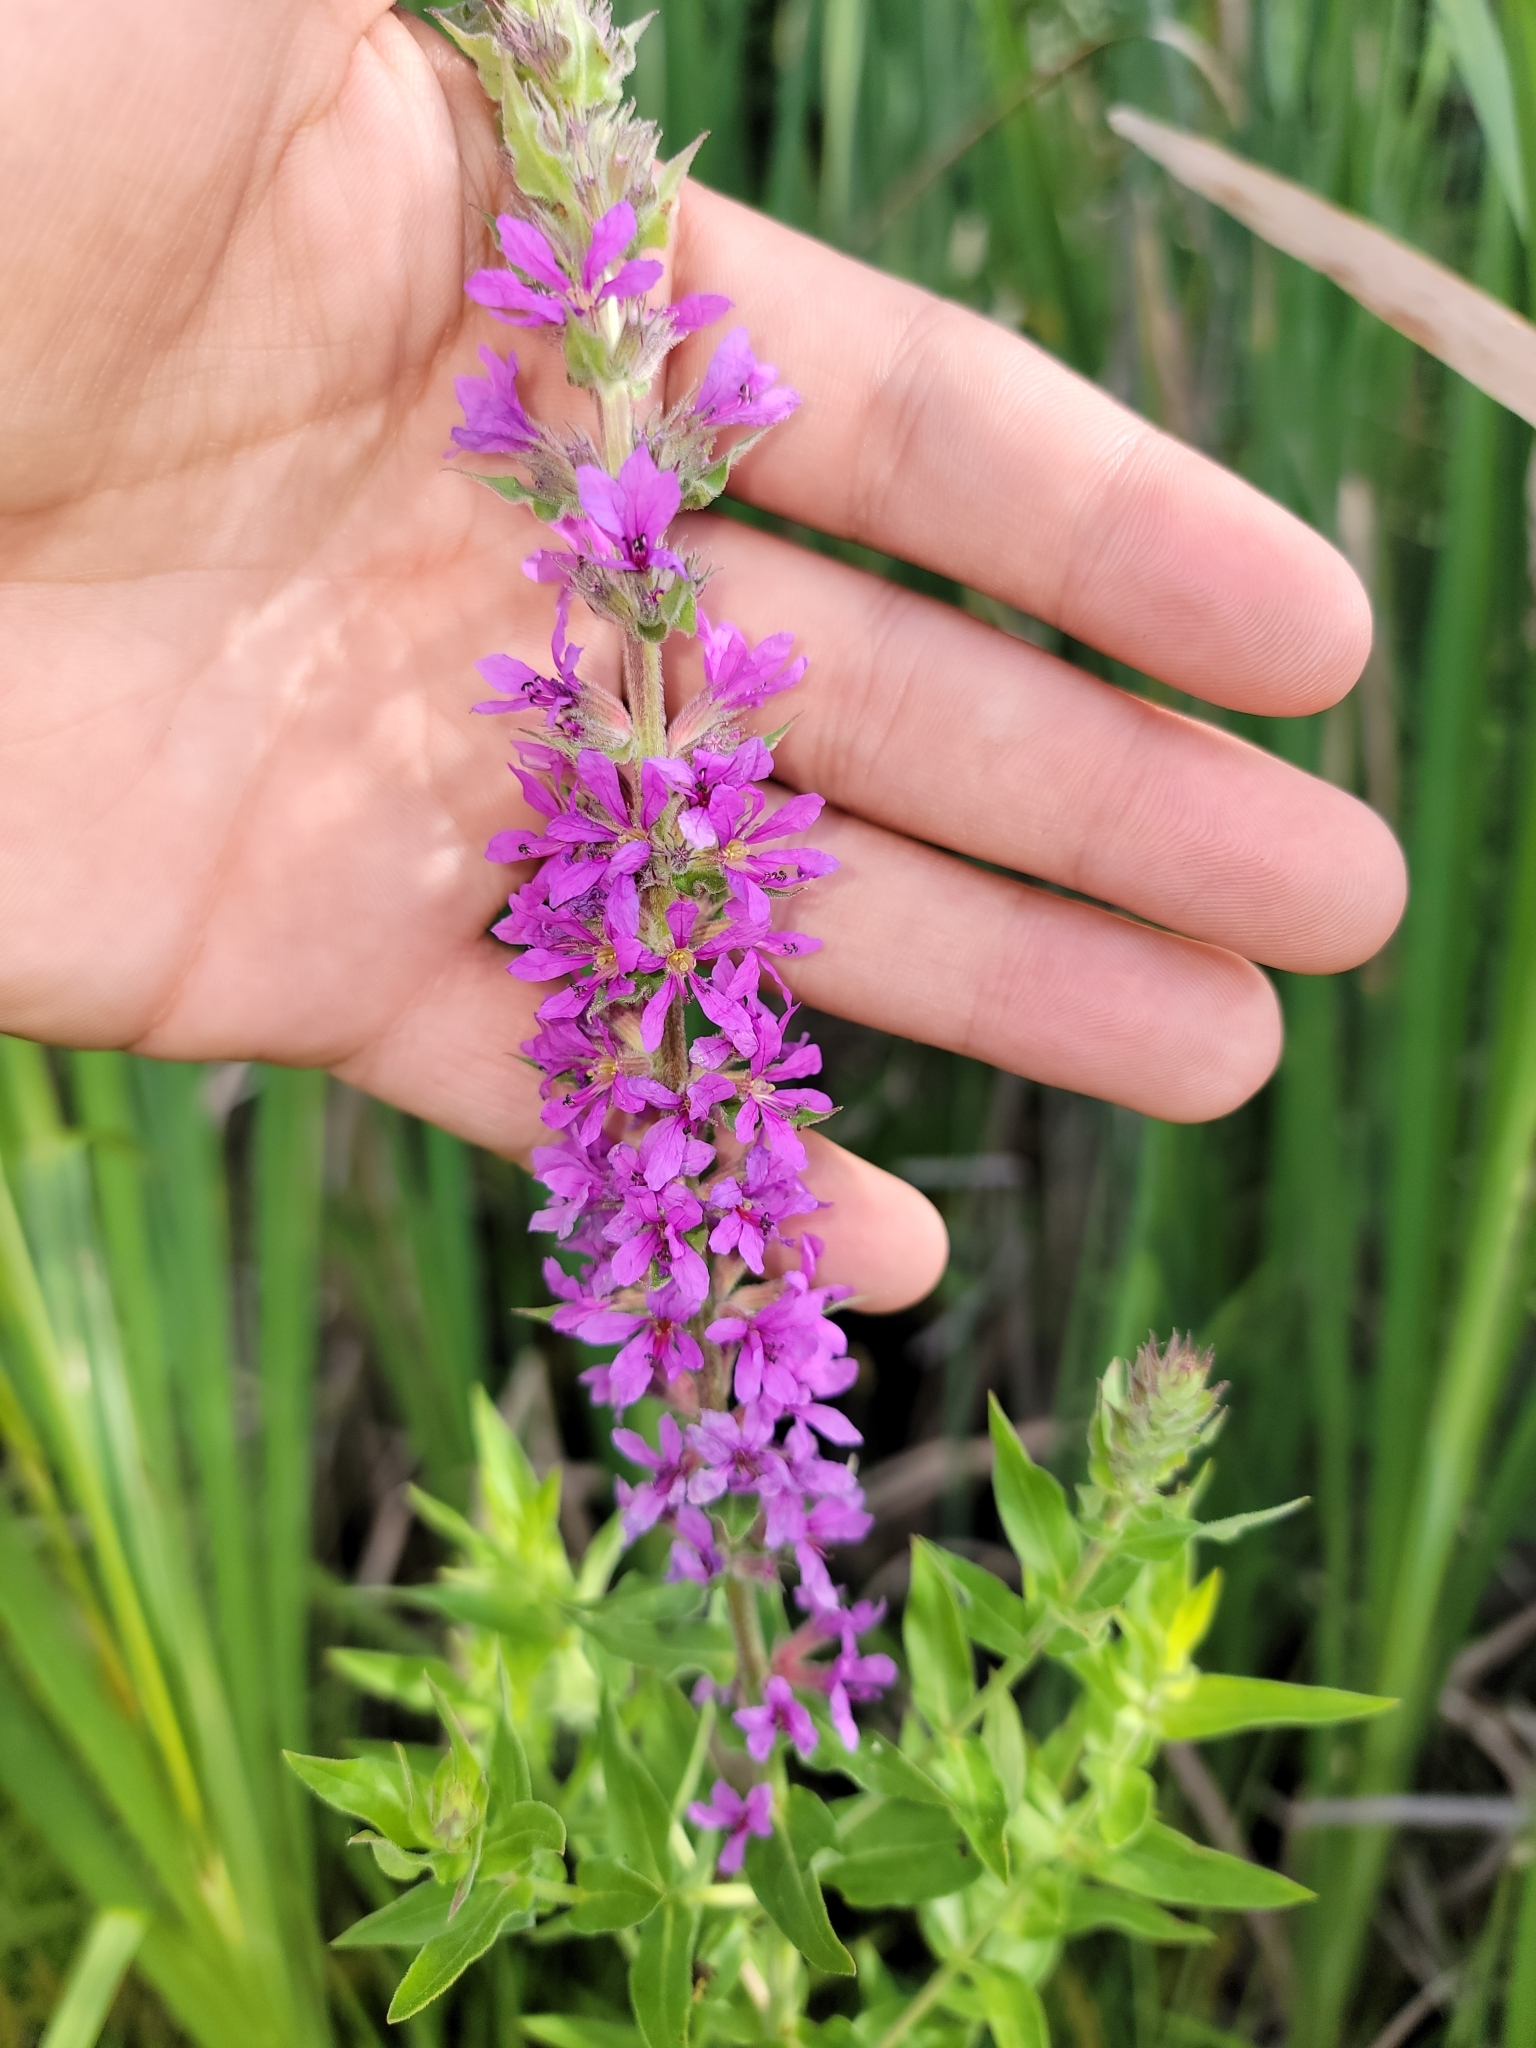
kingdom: Plantae
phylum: Tracheophyta
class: Magnoliopsida
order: Myrtales
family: Lythraceae
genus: Lythrum
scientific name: Lythrum salicaria
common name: Purple loosestrife
